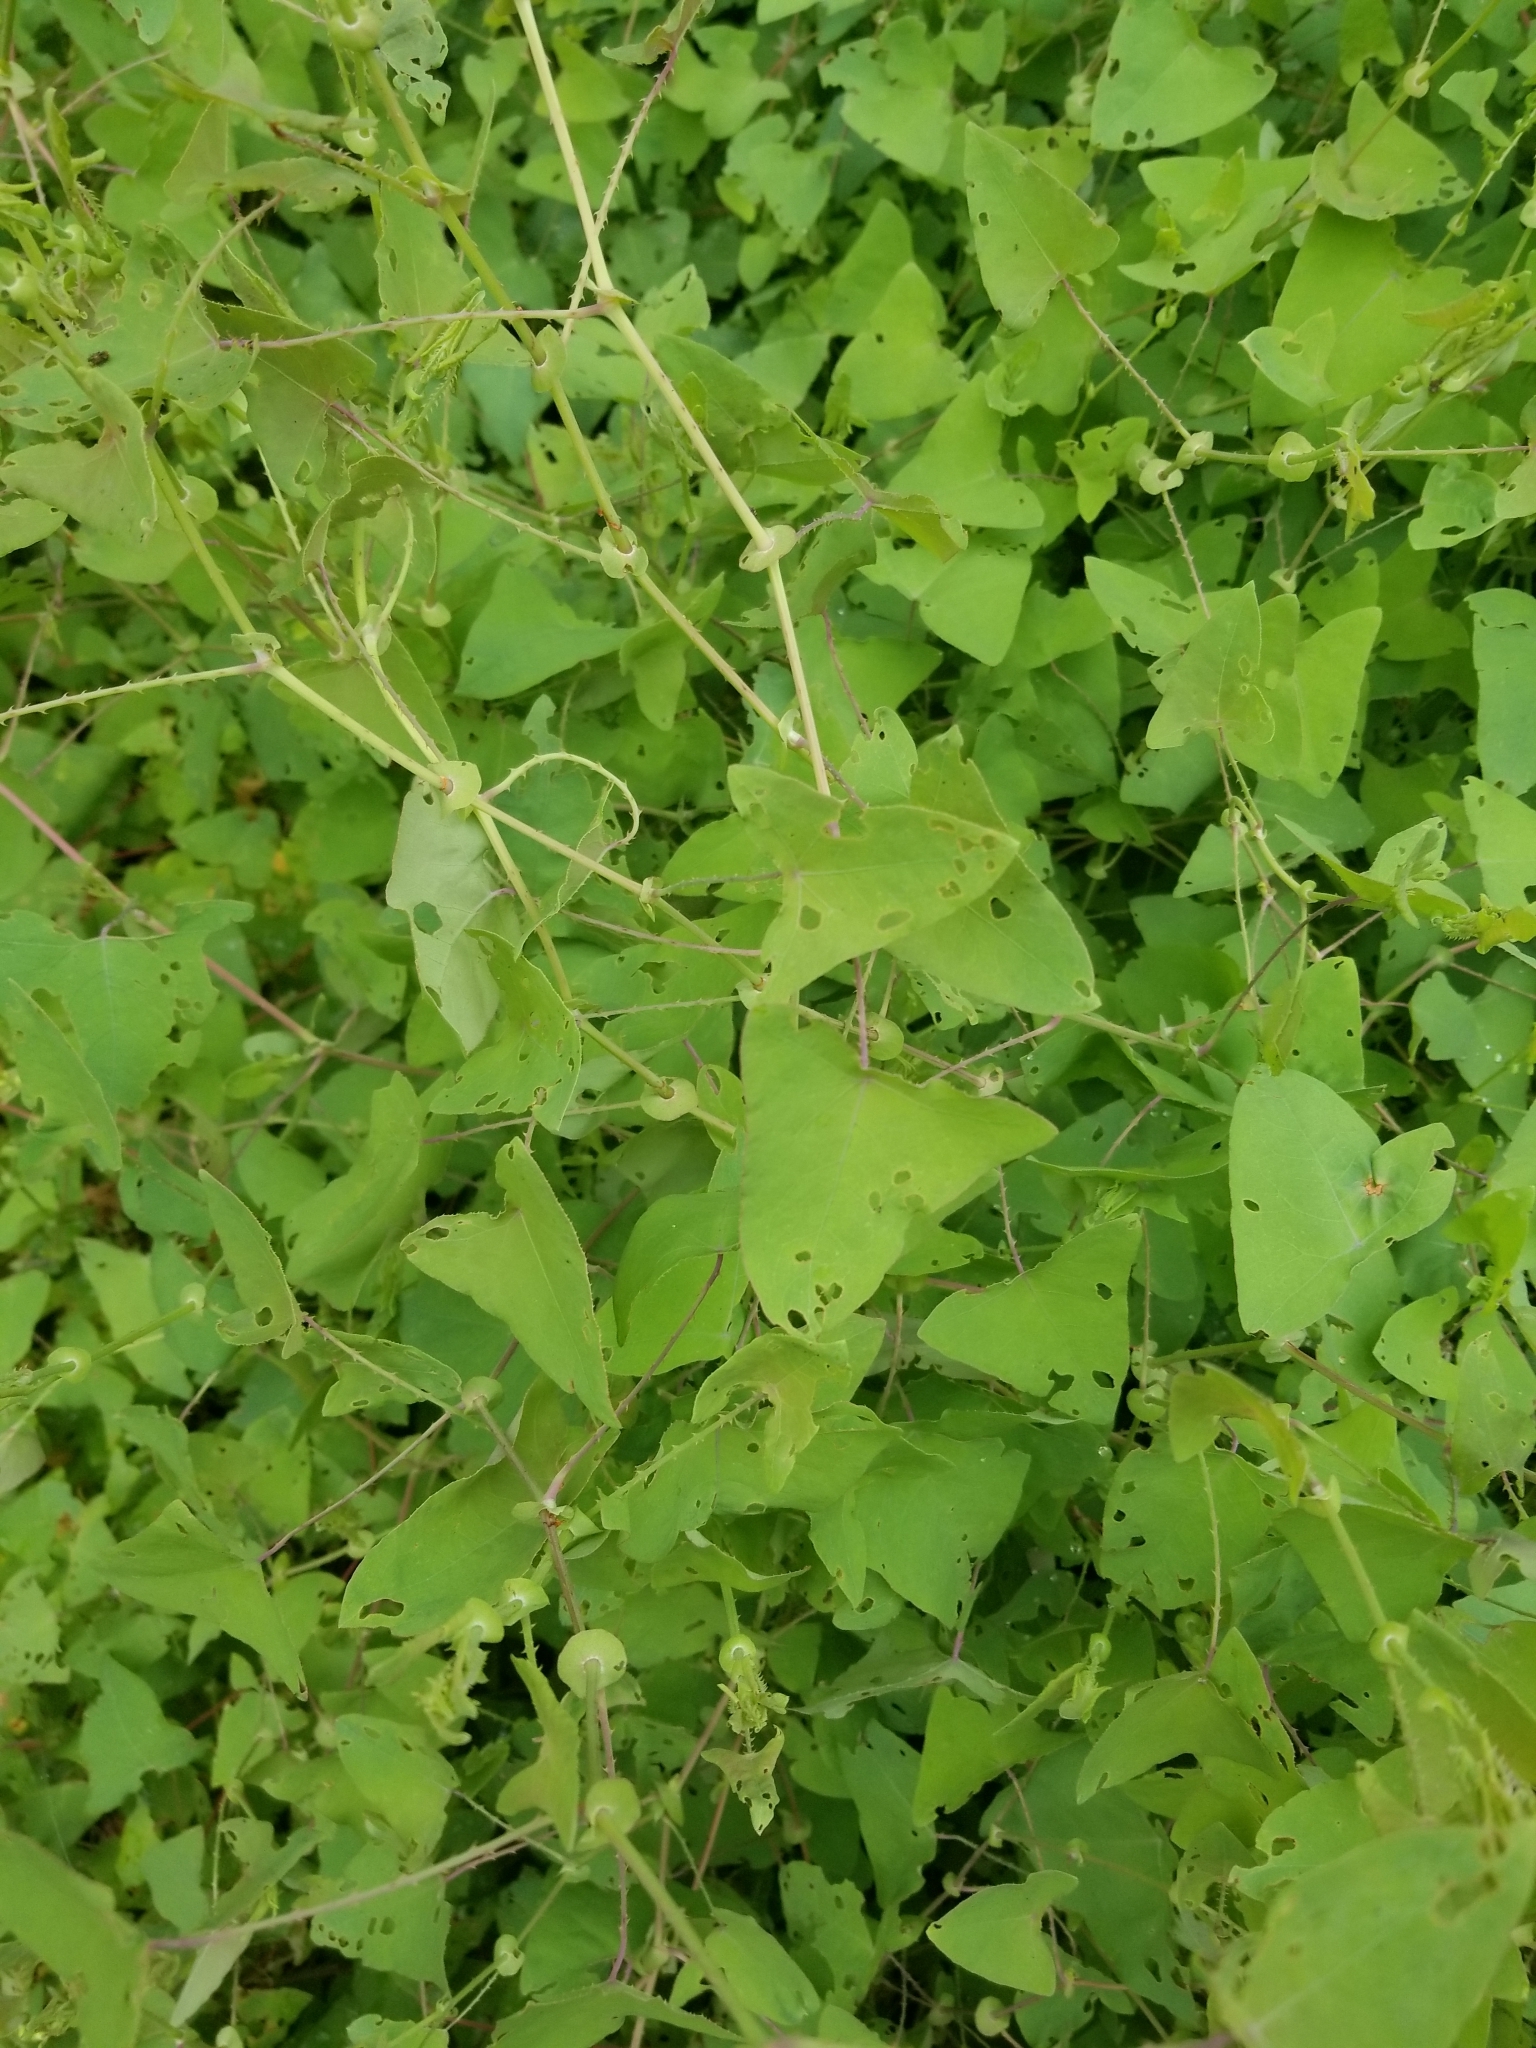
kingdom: Plantae
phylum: Tracheophyta
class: Magnoliopsida
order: Caryophyllales
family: Polygonaceae
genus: Persicaria
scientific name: Persicaria perfoliata
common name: Asiatic tearthumb
